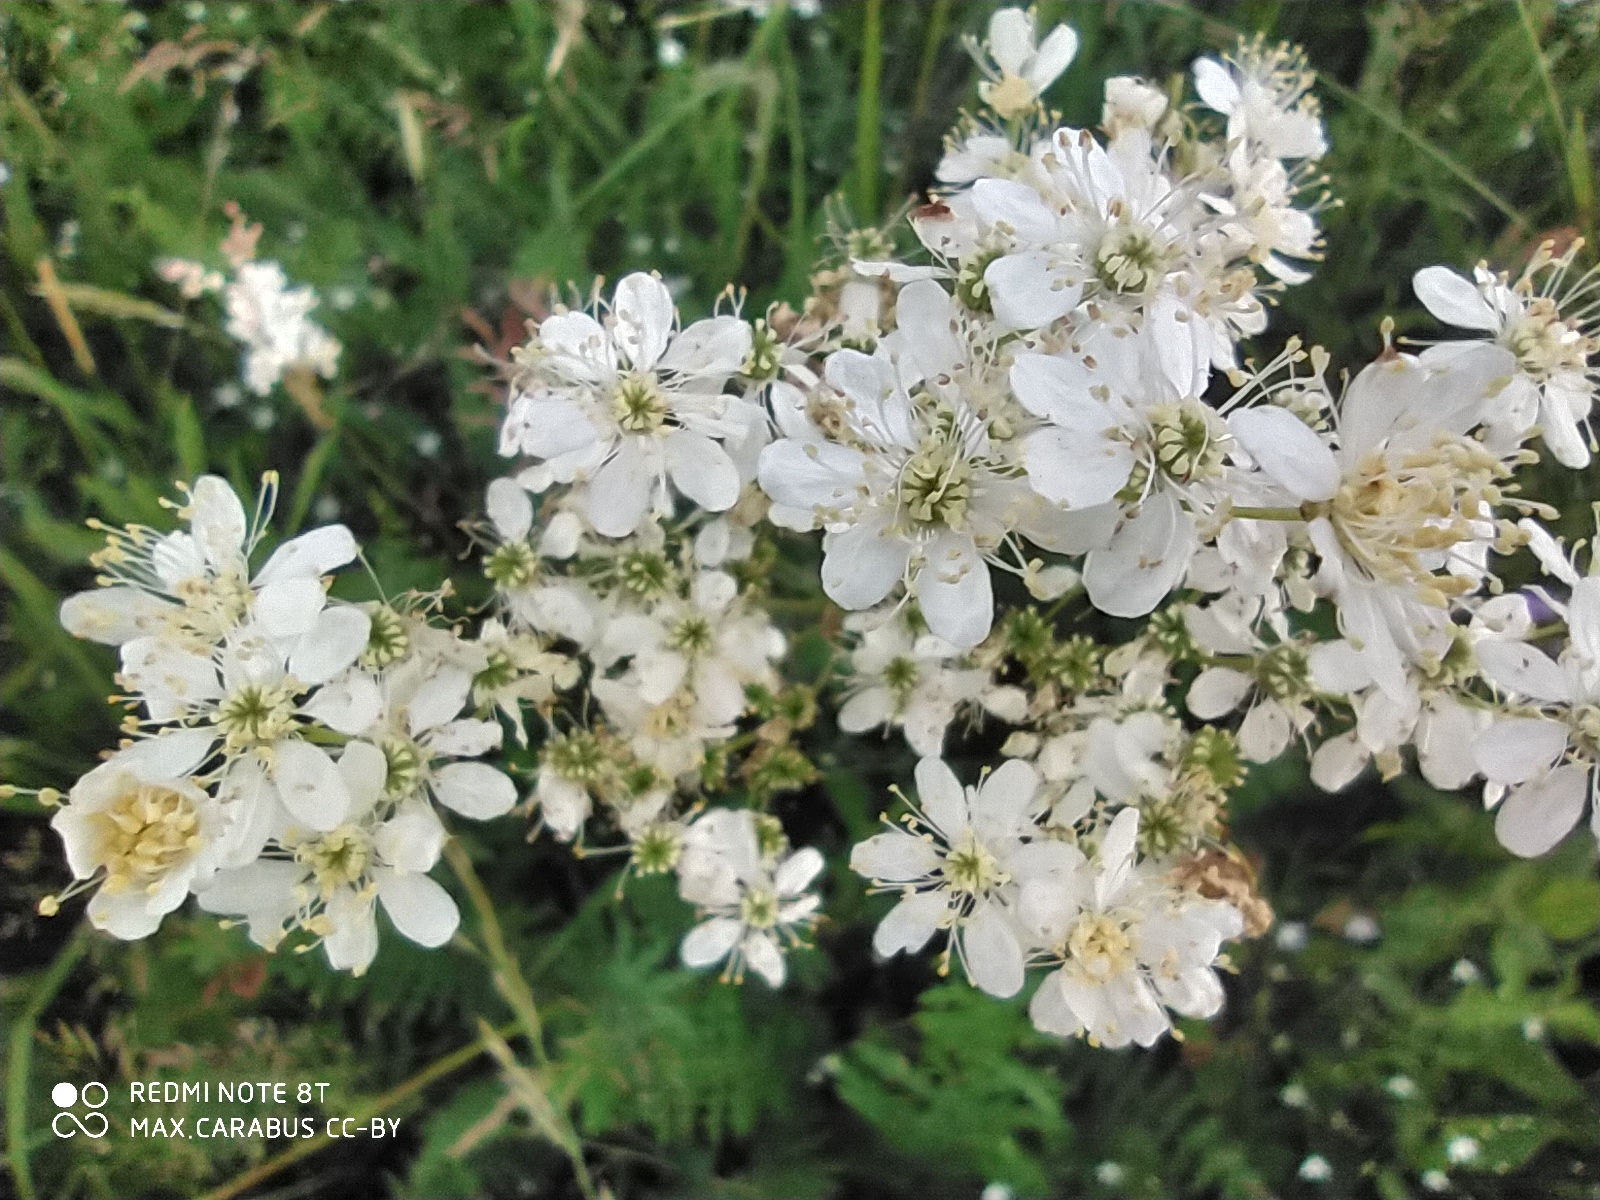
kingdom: Plantae
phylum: Tracheophyta
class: Magnoliopsida
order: Rosales
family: Rosaceae
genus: Filipendula
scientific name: Filipendula vulgaris
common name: Dropwort
